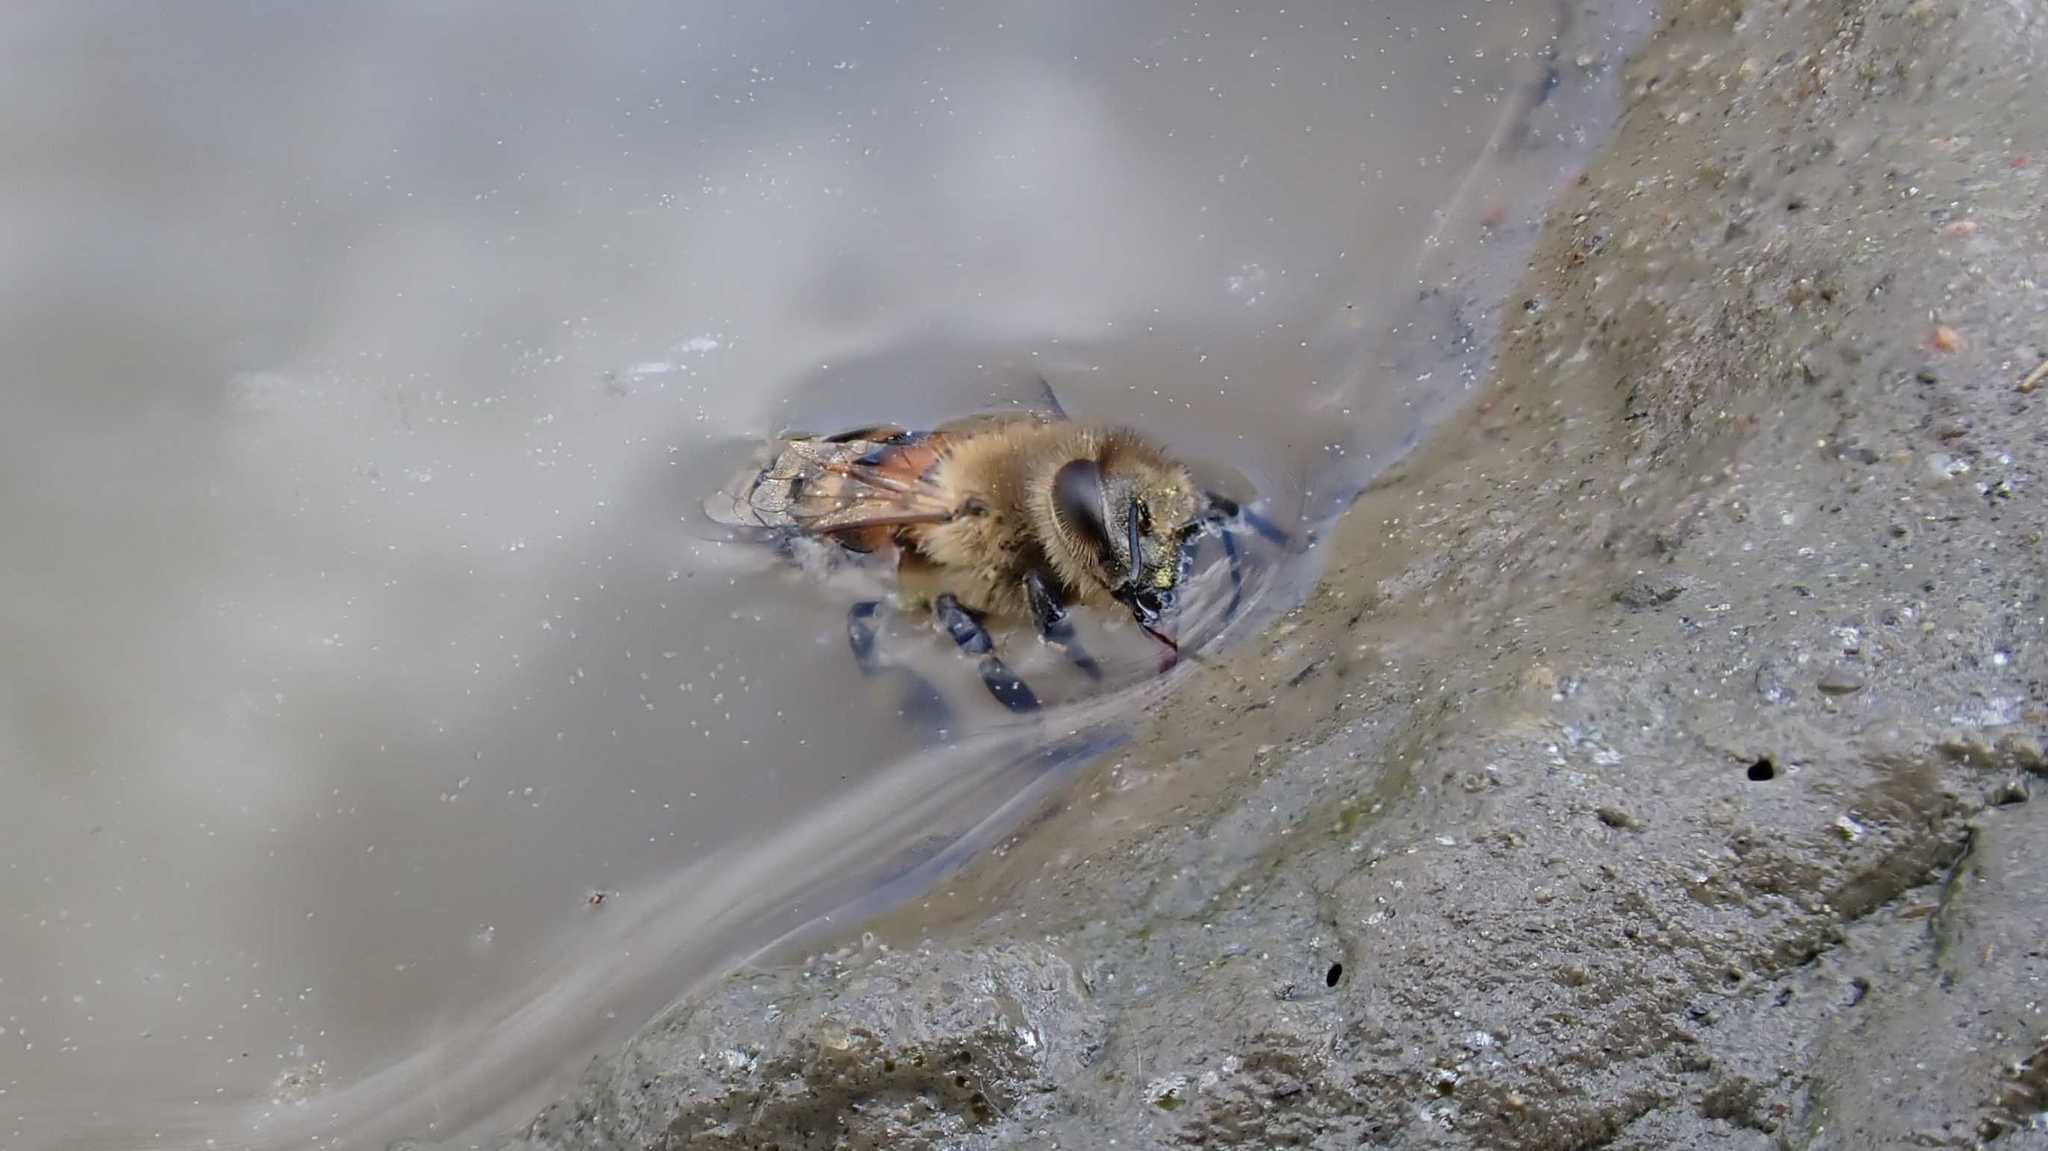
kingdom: Animalia
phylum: Arthropoda
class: Insecta
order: Hymenoptera
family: Apidae
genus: Apis
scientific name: Apis mellifera
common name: Honey bee
